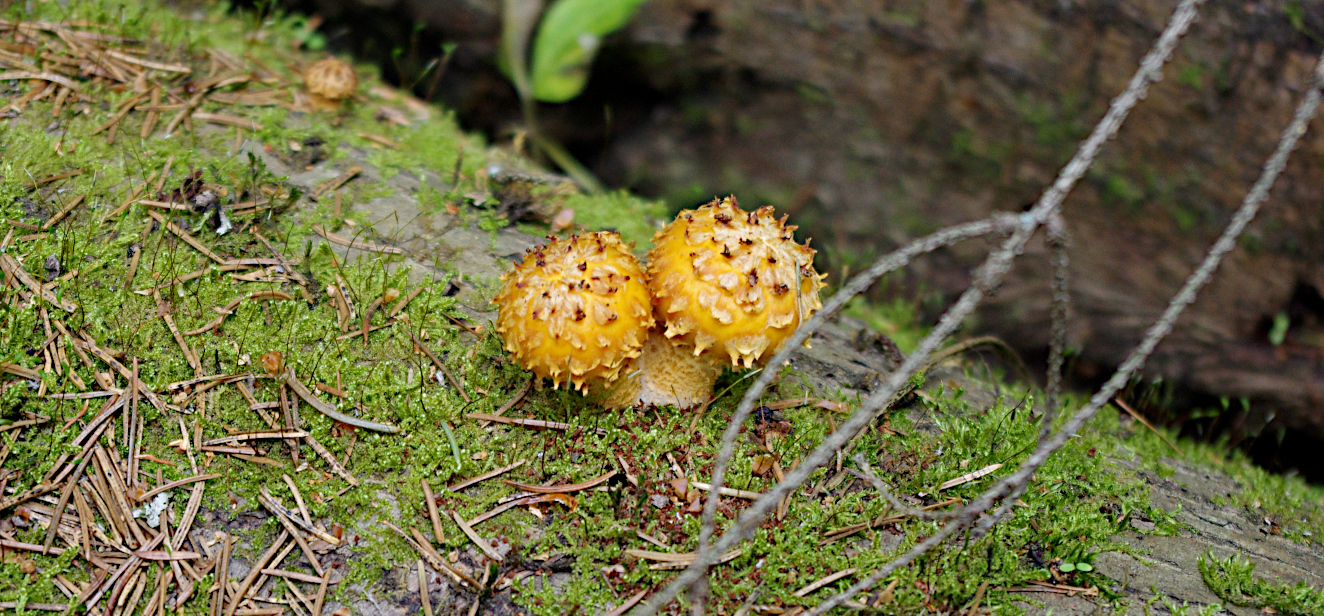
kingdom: Fungi
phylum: Basidiomycota
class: Agaricomycetes
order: Agaricales
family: Strophariaceae
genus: Pholiota
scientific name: Pholiota aurivella
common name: Golden scalycap
